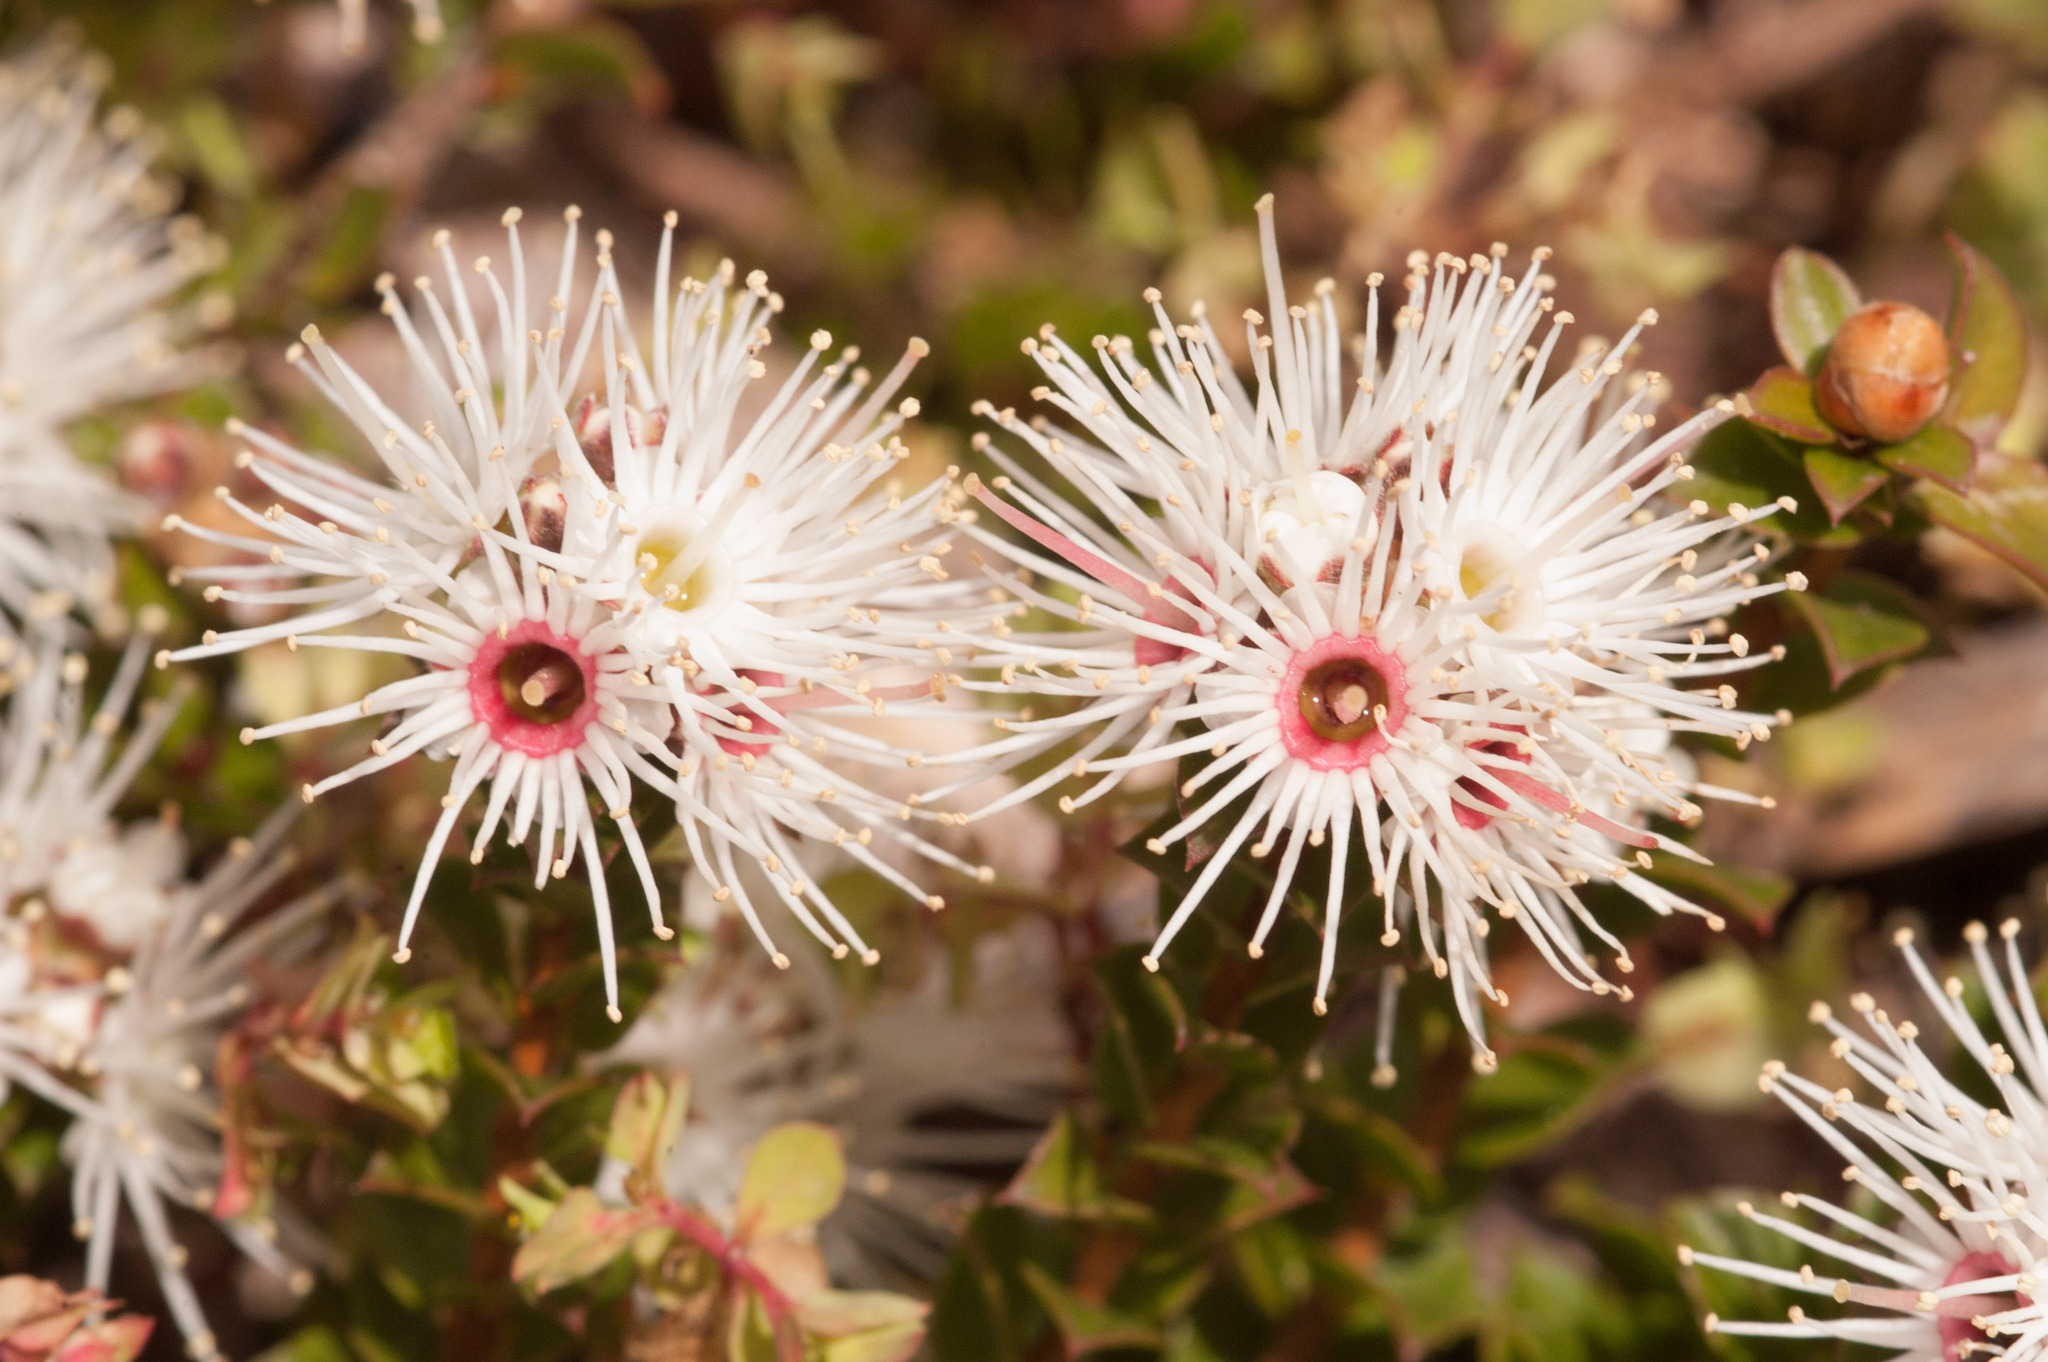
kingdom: Plantae
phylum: Tracheophyta
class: Magnoliopsida
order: Myrtales
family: Myrtaceae
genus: Kunzea
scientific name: Kunzea pomifera
